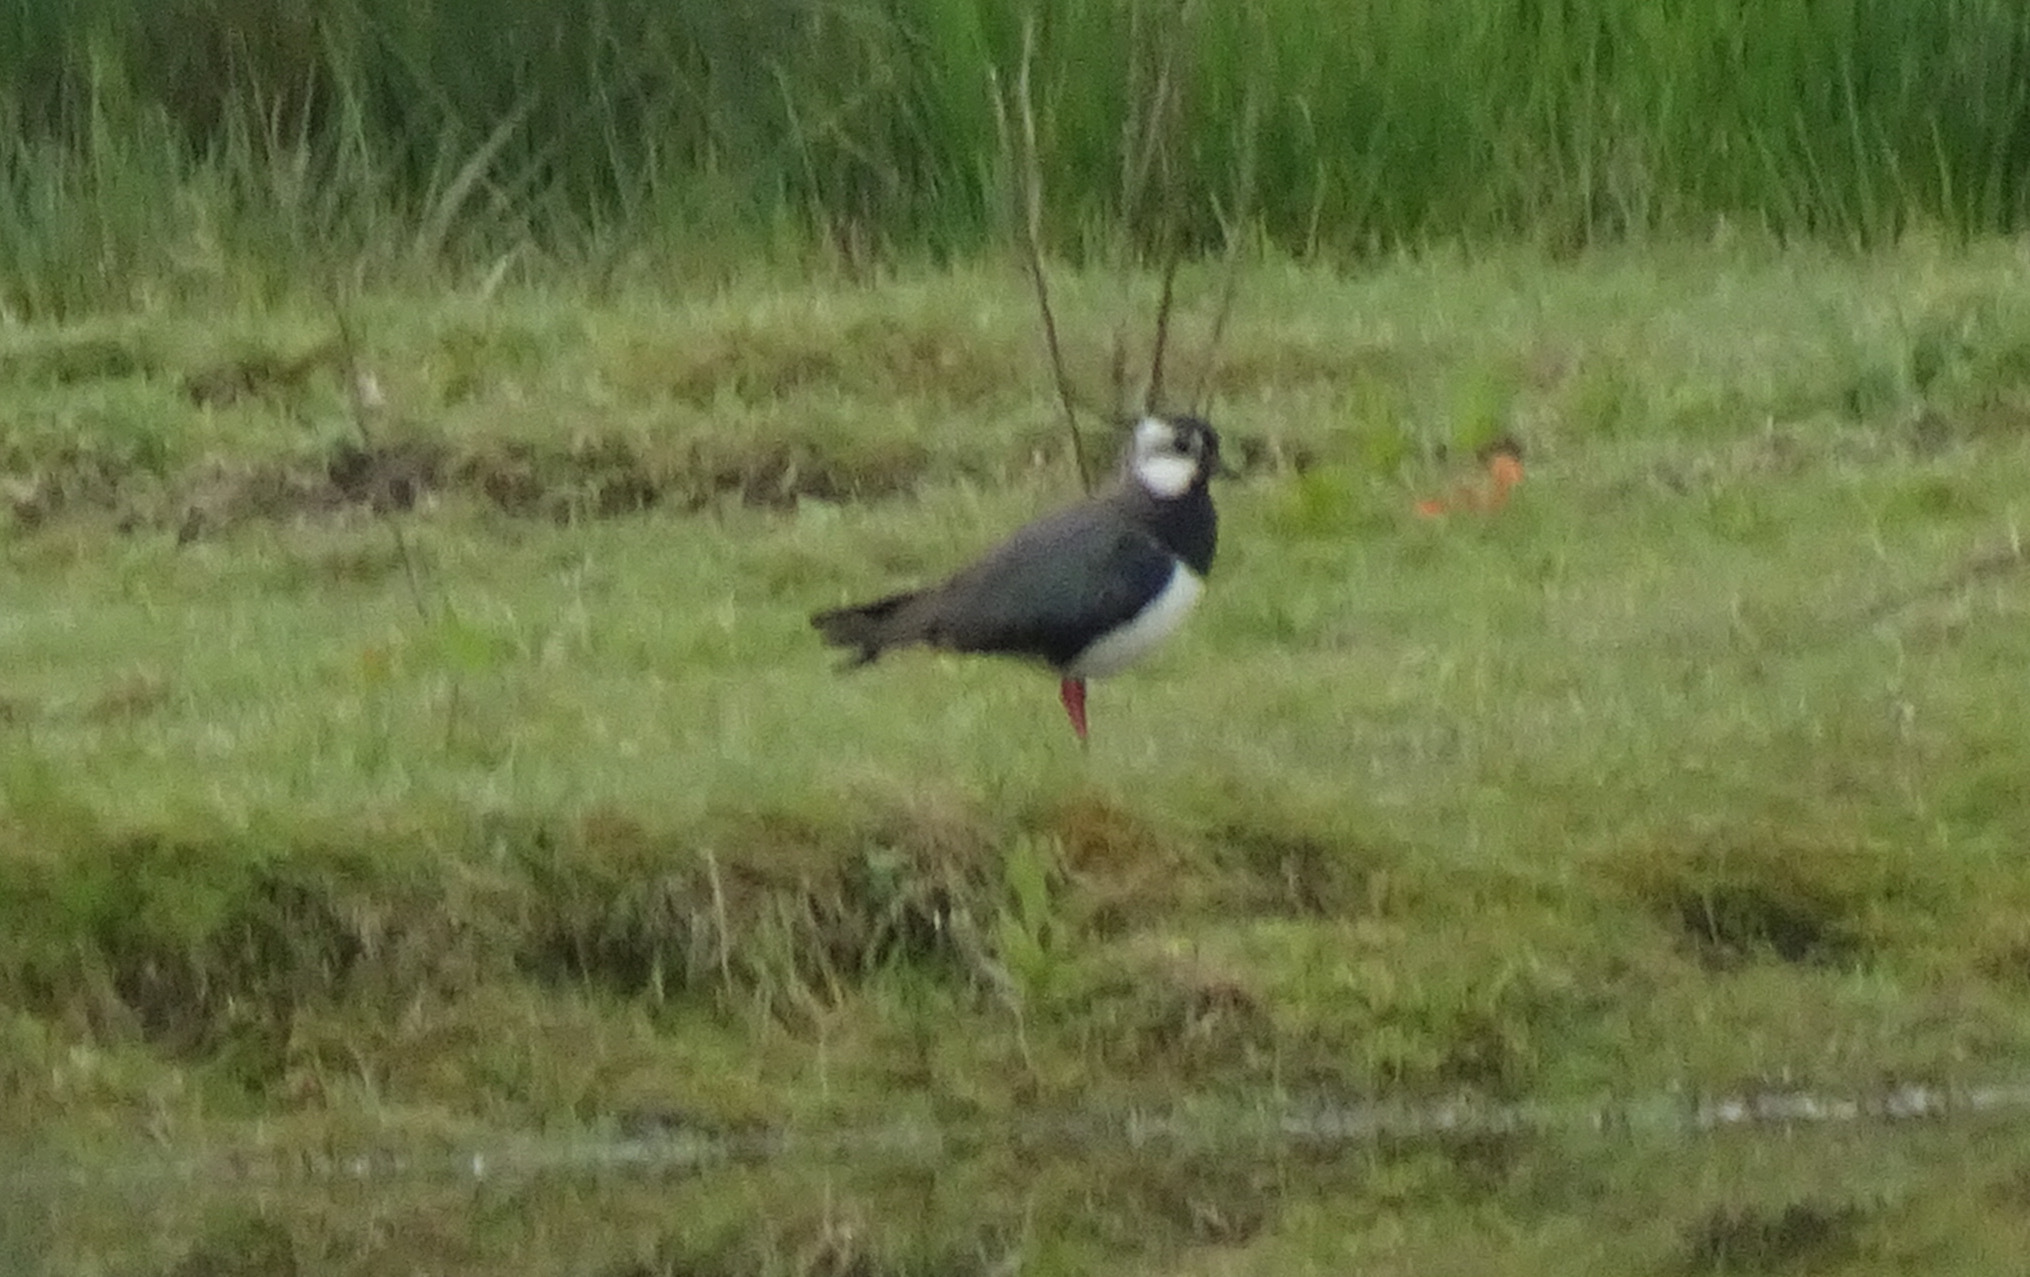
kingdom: Animalia
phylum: Chordata
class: Aves
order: Charadriiformes
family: Charadriidae
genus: Vanellus
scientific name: Vanellus vanellus
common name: Northern lapwing
